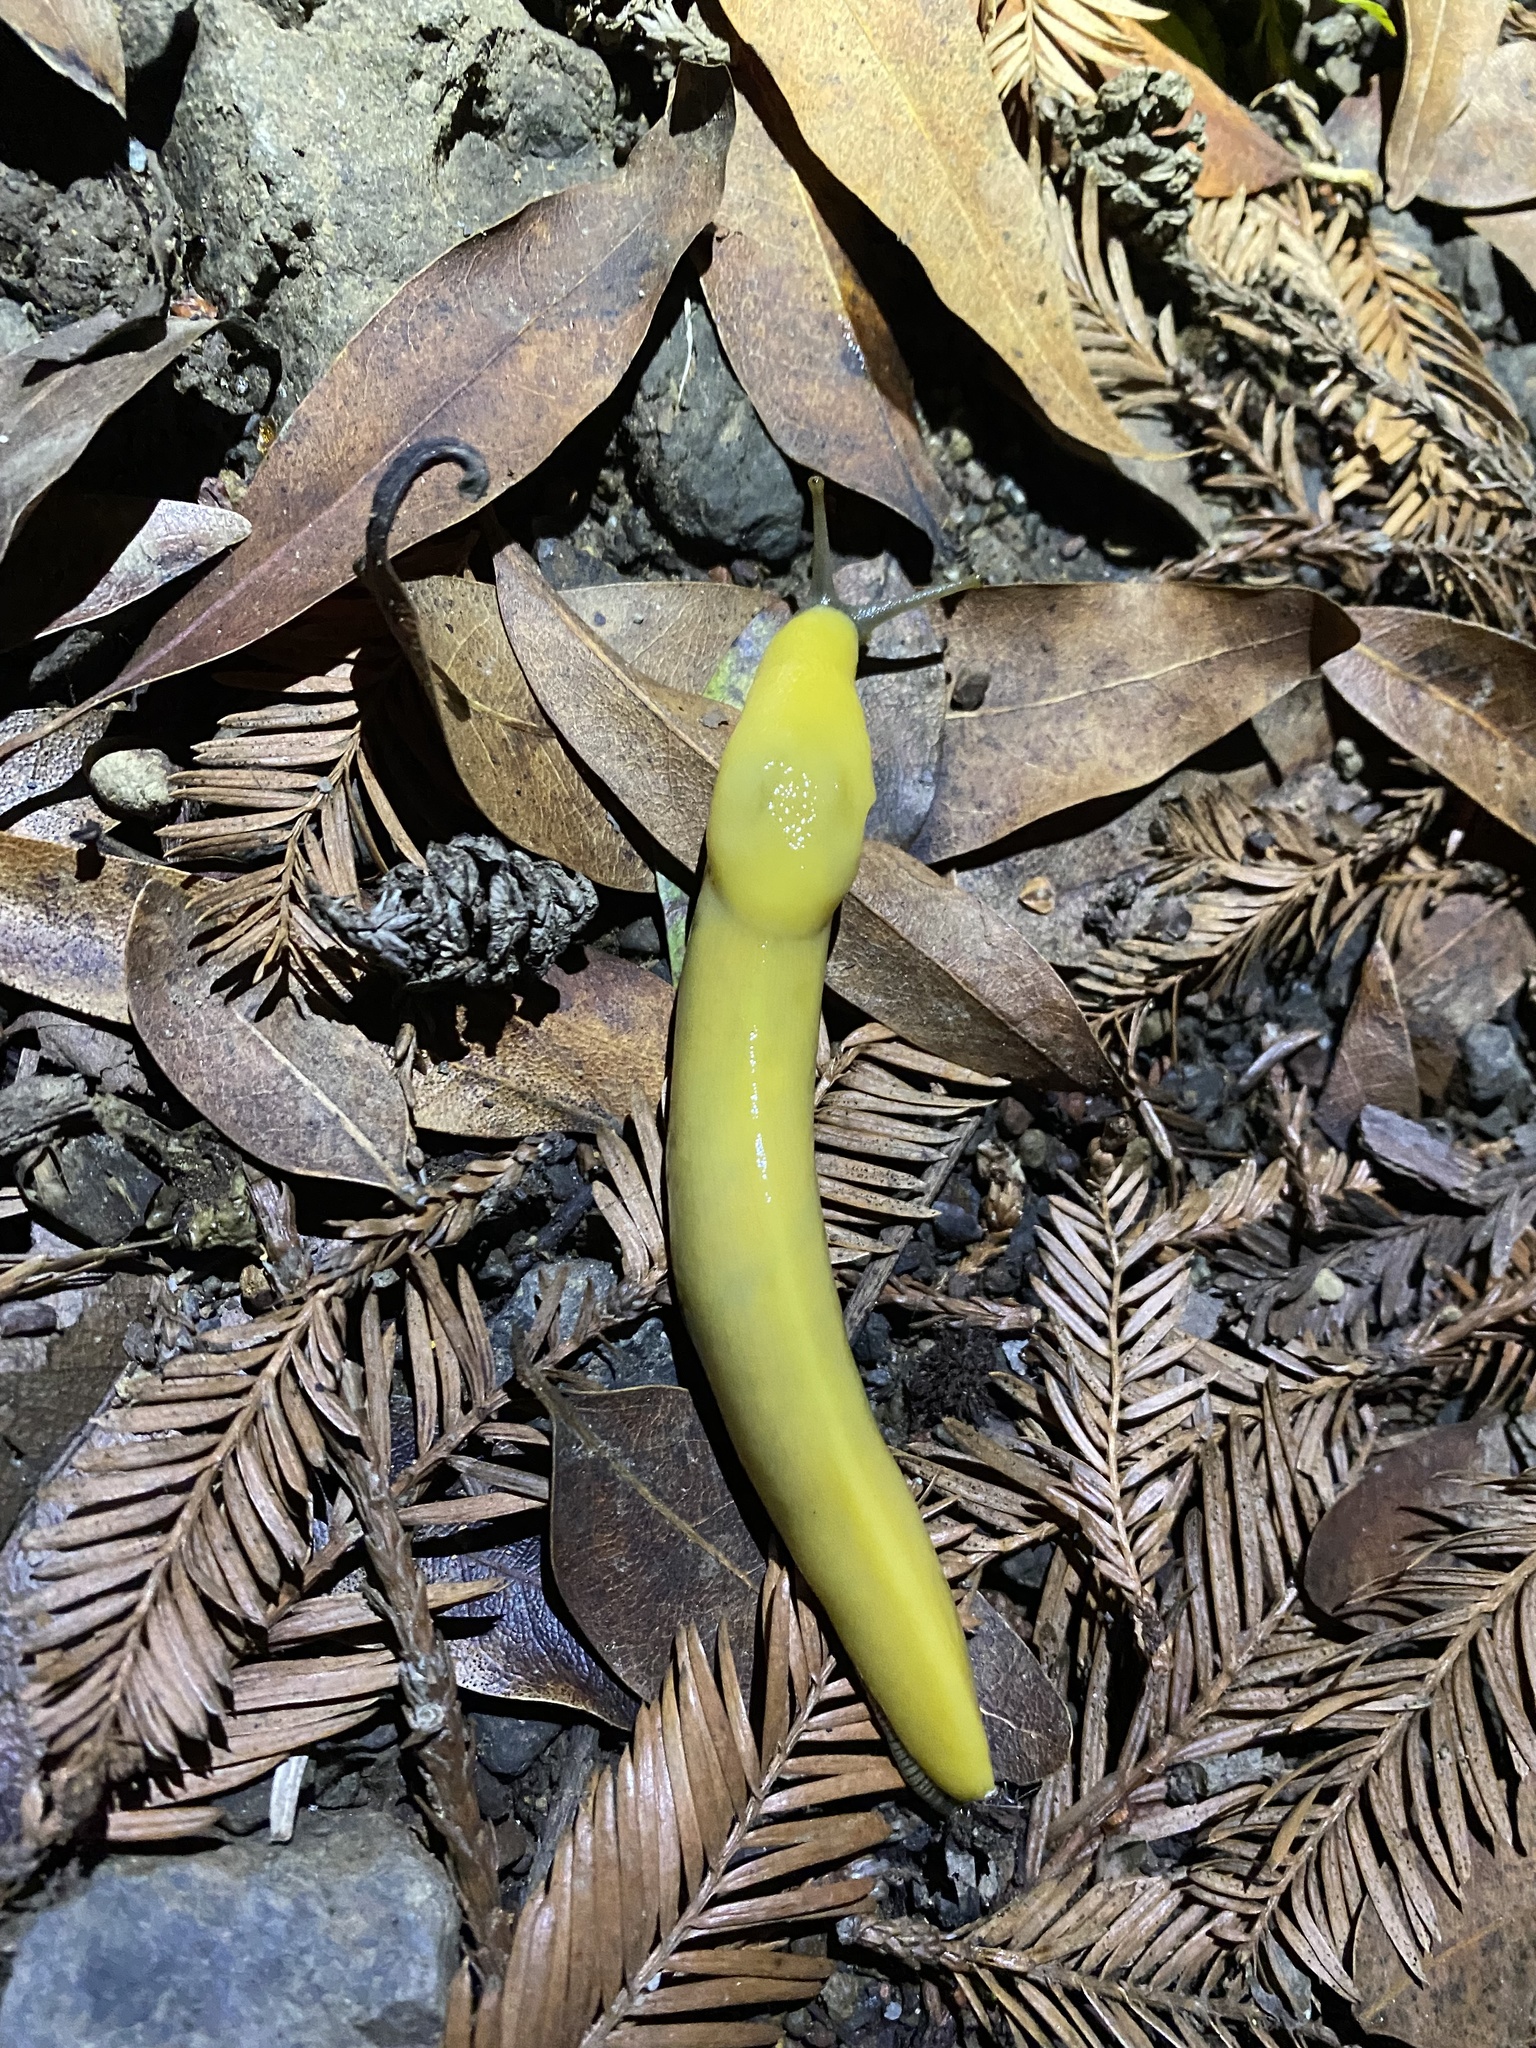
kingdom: Animalia
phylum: Mollusca
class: Gastropoda
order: Stylommatophora
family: Ariolimacidae
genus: Ariolimax
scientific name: Ariolimax stramineus
